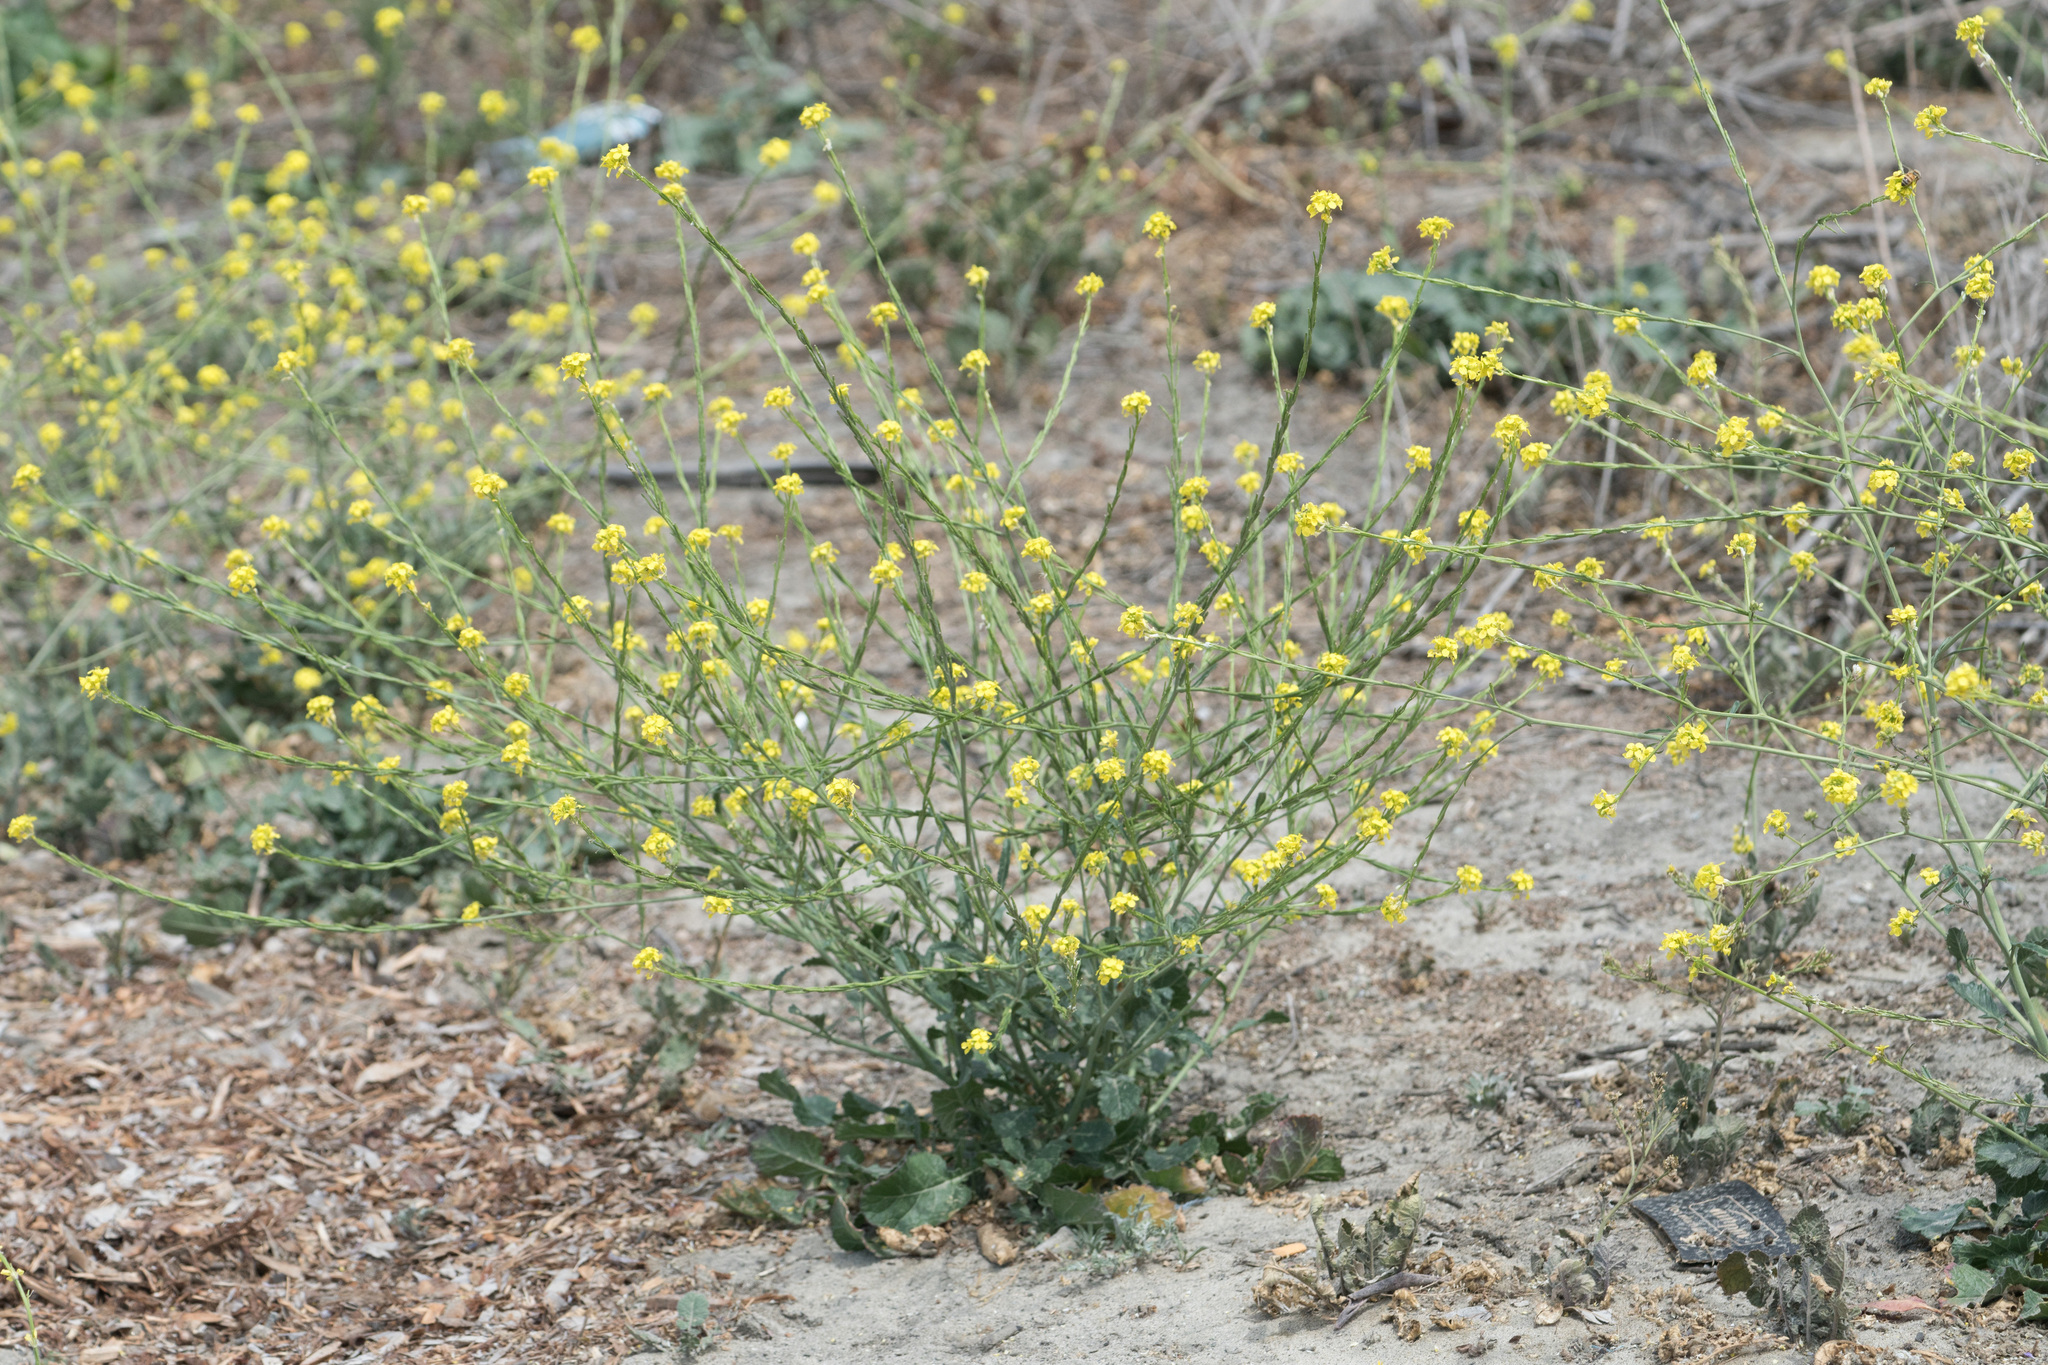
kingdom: Plantae
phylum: Tracheophyta
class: Magnoliopsida
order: Brassicales
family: Brassicaceae
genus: Hirschfeldia
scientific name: Hirschfeldia incana
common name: Hoary mustard
